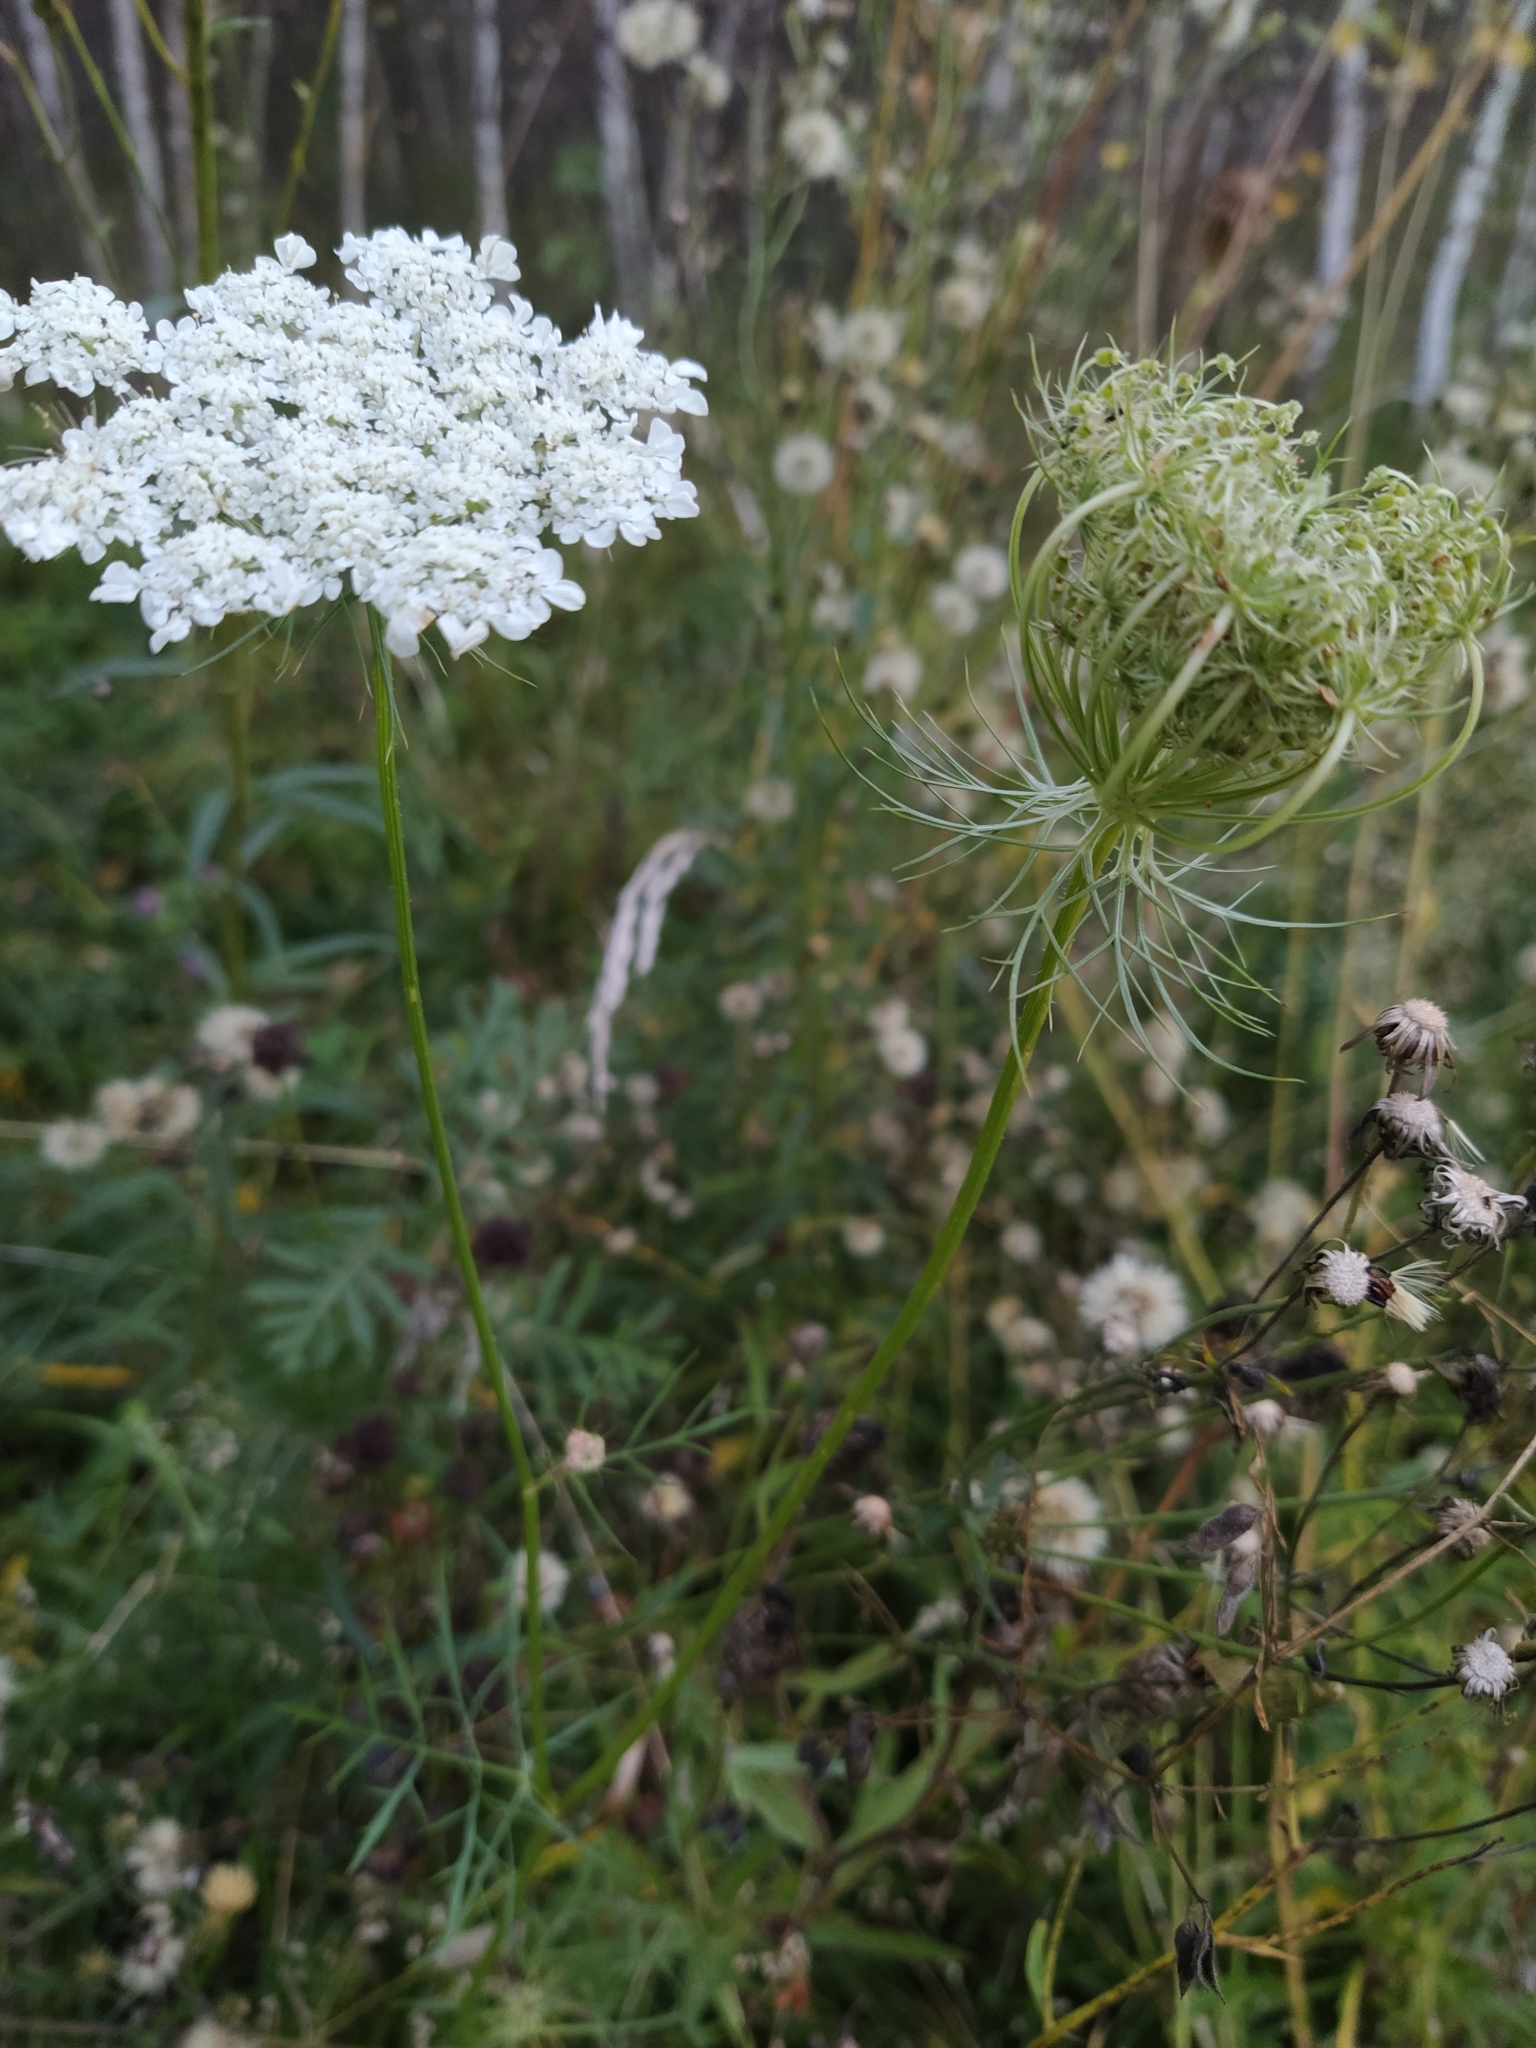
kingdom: Plantae
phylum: Tracheophyta
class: Magnoliopsida
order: Apiales
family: Apiaceae
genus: Daucus
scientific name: Daucus carota
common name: Wild carrot
